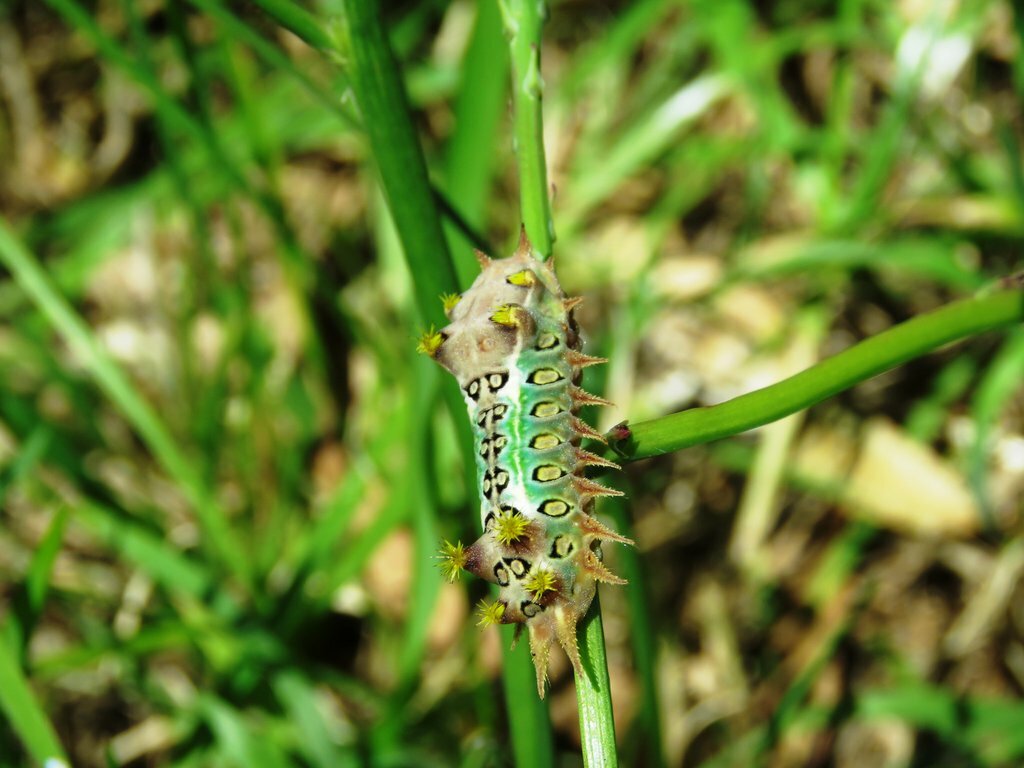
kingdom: Animalia
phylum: Arthropoda
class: Insecta
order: Lepidoptera
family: Limacodidae
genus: Doratifera
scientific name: Doratifera oxleyi
